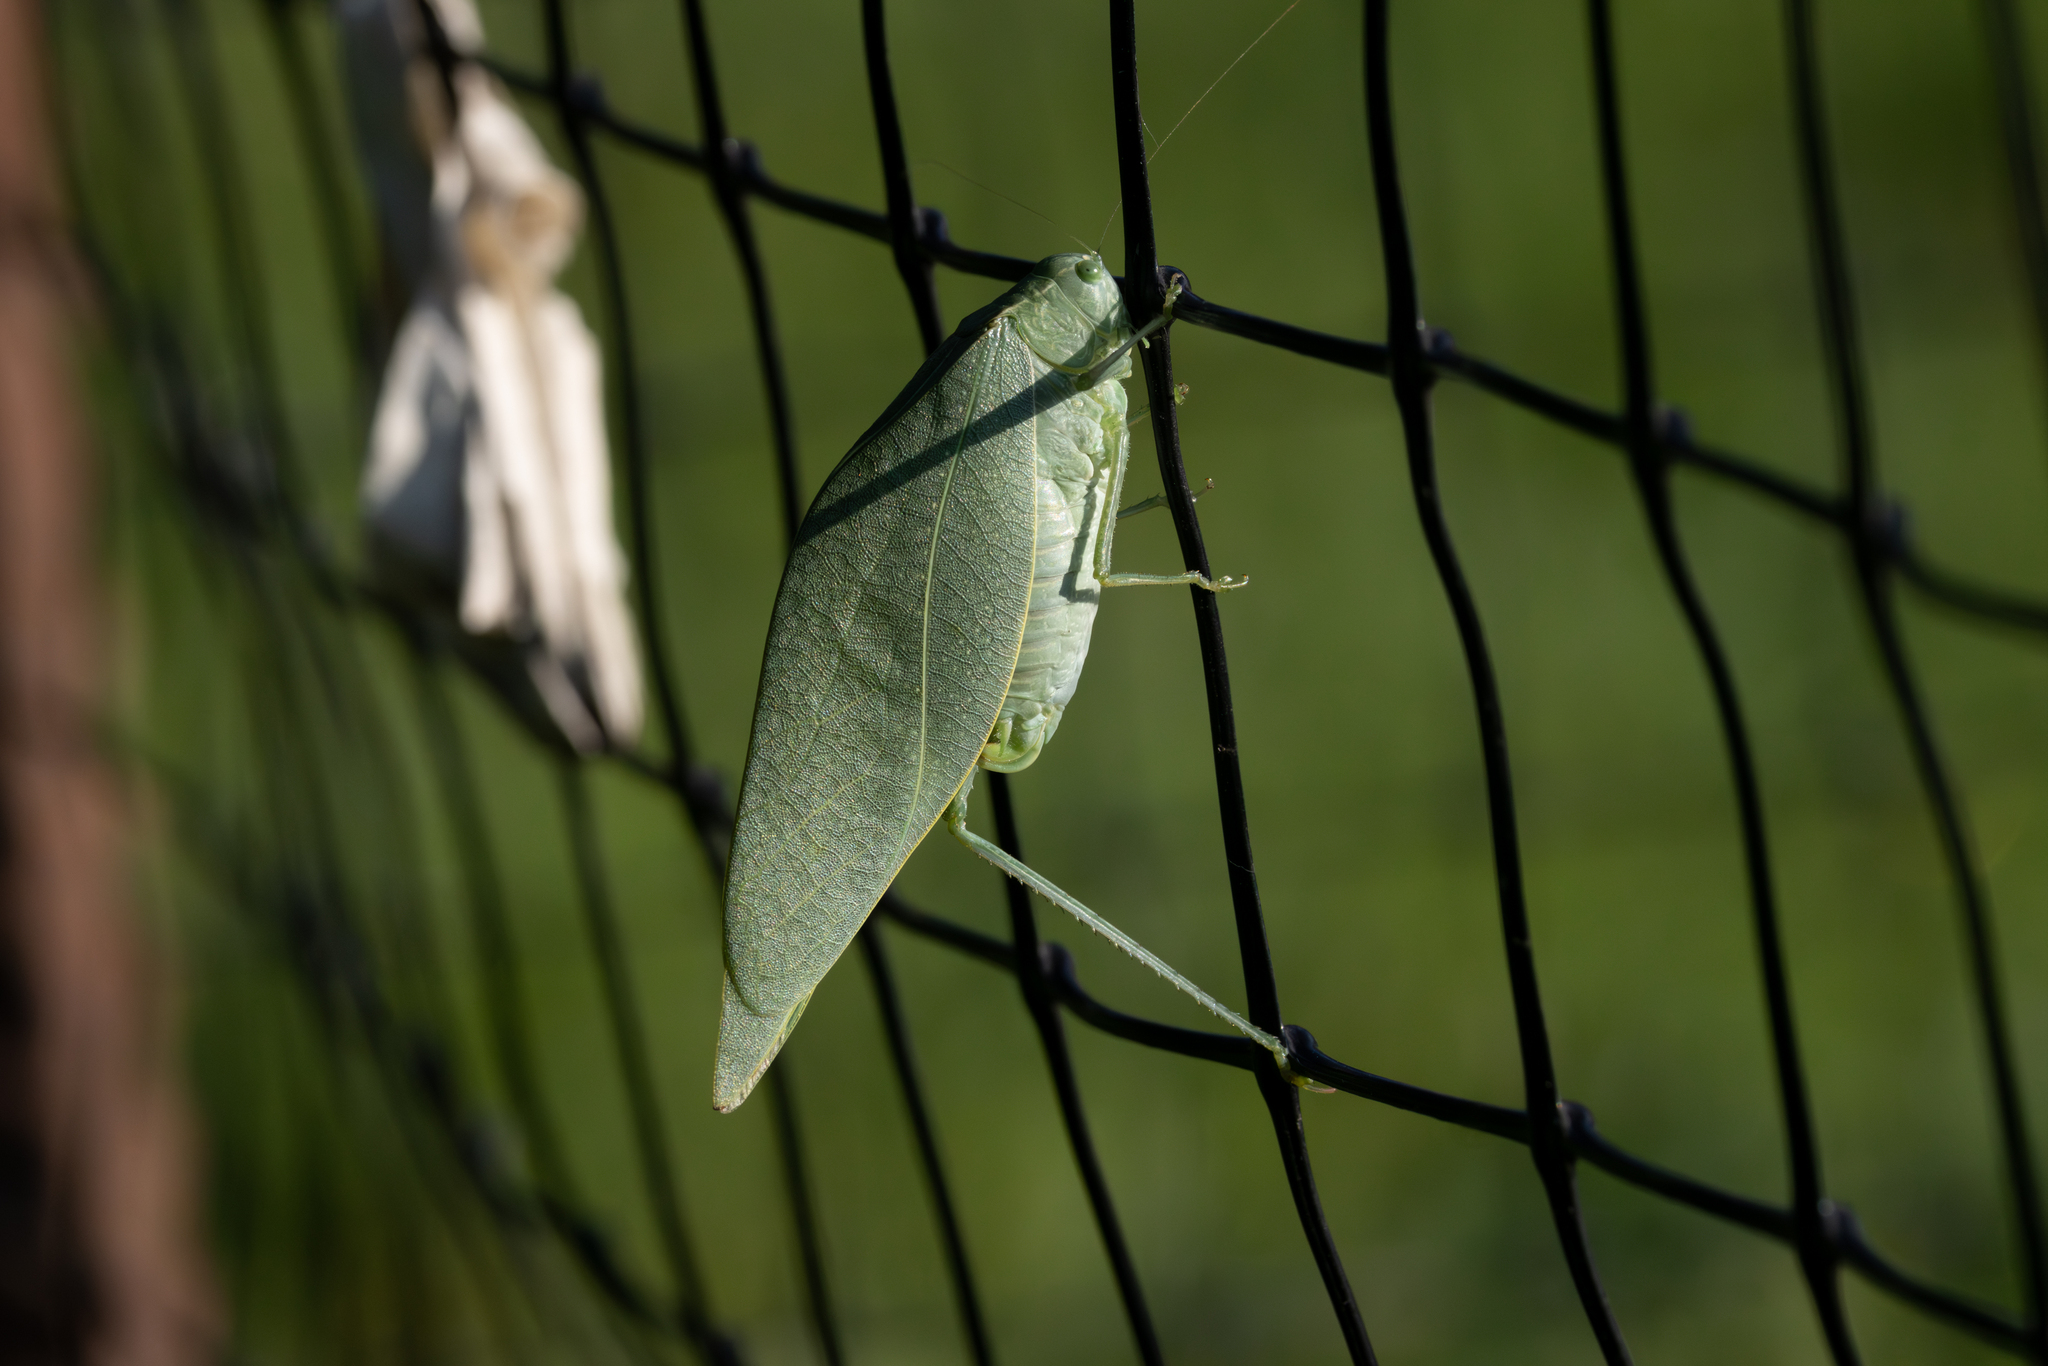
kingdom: Animalia
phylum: Arthropoda
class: Insecta
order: Orthoptera
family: Tettigoniidae
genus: Microcentrum
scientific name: Microcentrum rhombifolium
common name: Broad-winged katydid
